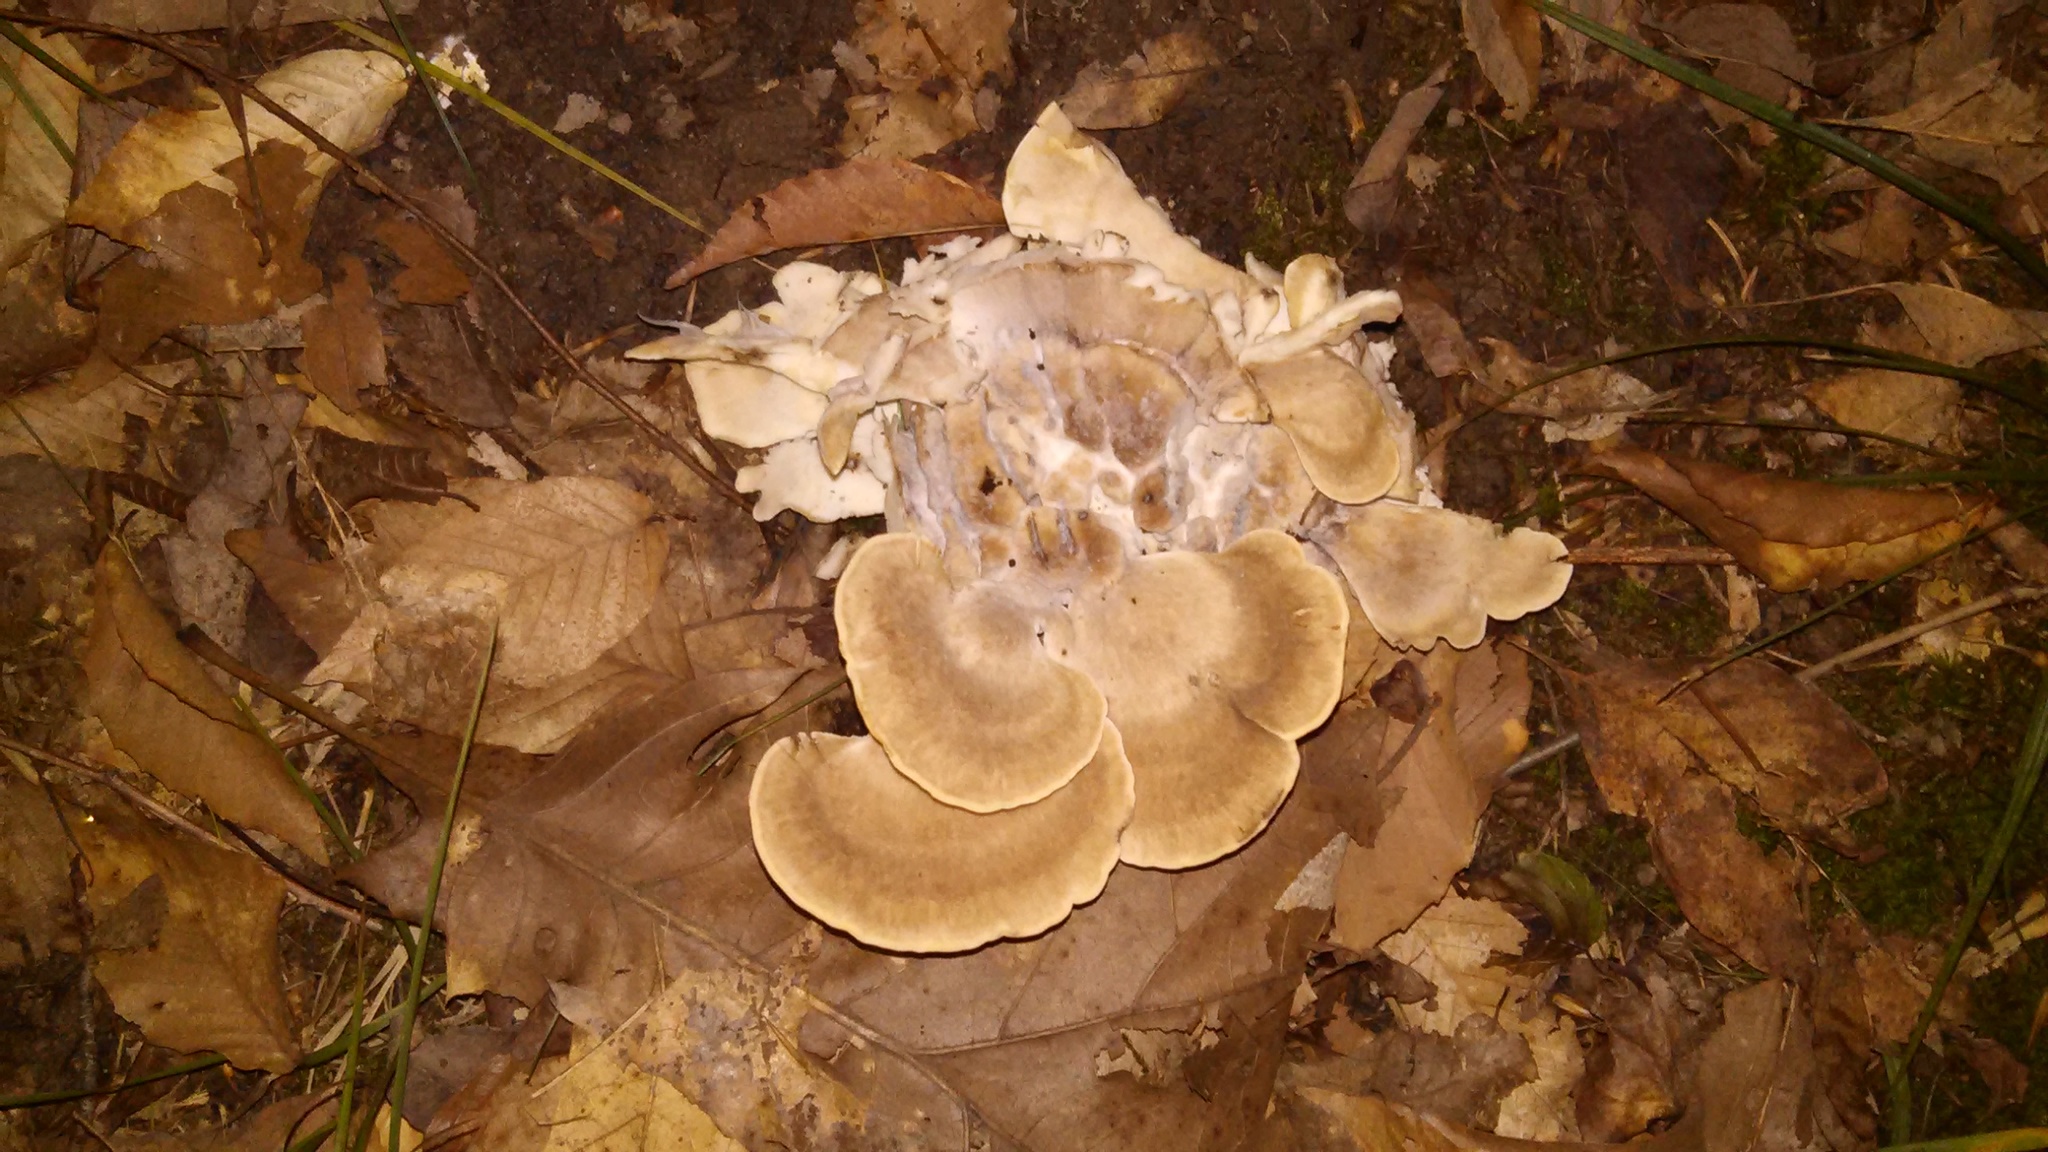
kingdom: Fungi
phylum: Basidiomycota
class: Agaricomycetes
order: Polyporales
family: Meripilaceae
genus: Meripilus
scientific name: Meripilus sumstinei
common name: Black-staining polypore
